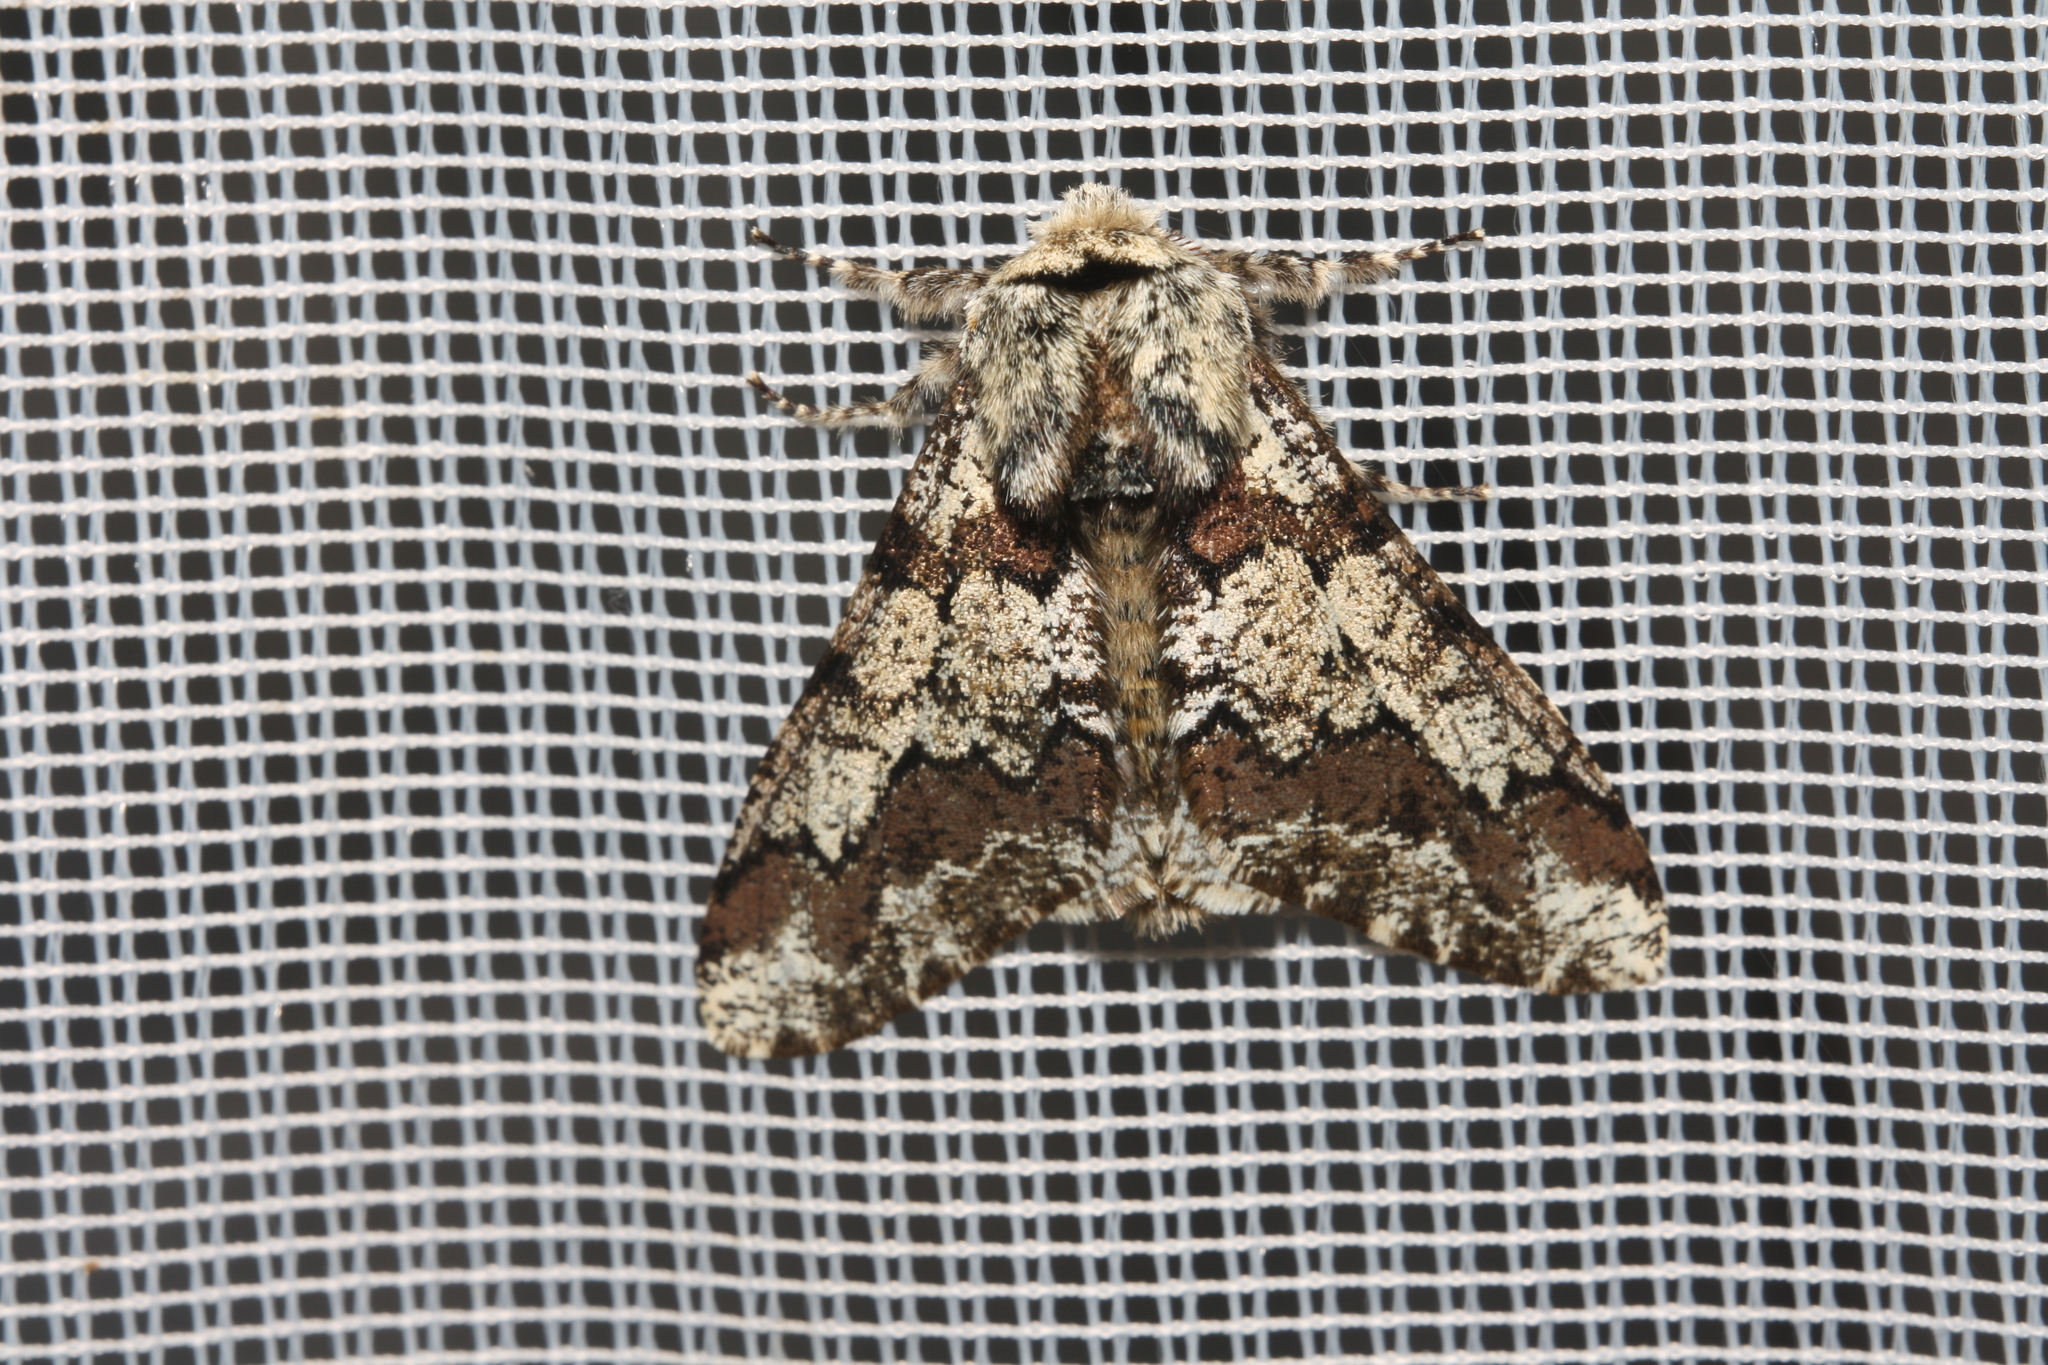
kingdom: Animalia
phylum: Arthropoda
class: Insecta
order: Lepidoptera
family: Geometridae
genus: Biston
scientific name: Biston strataria
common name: Oak beauty
